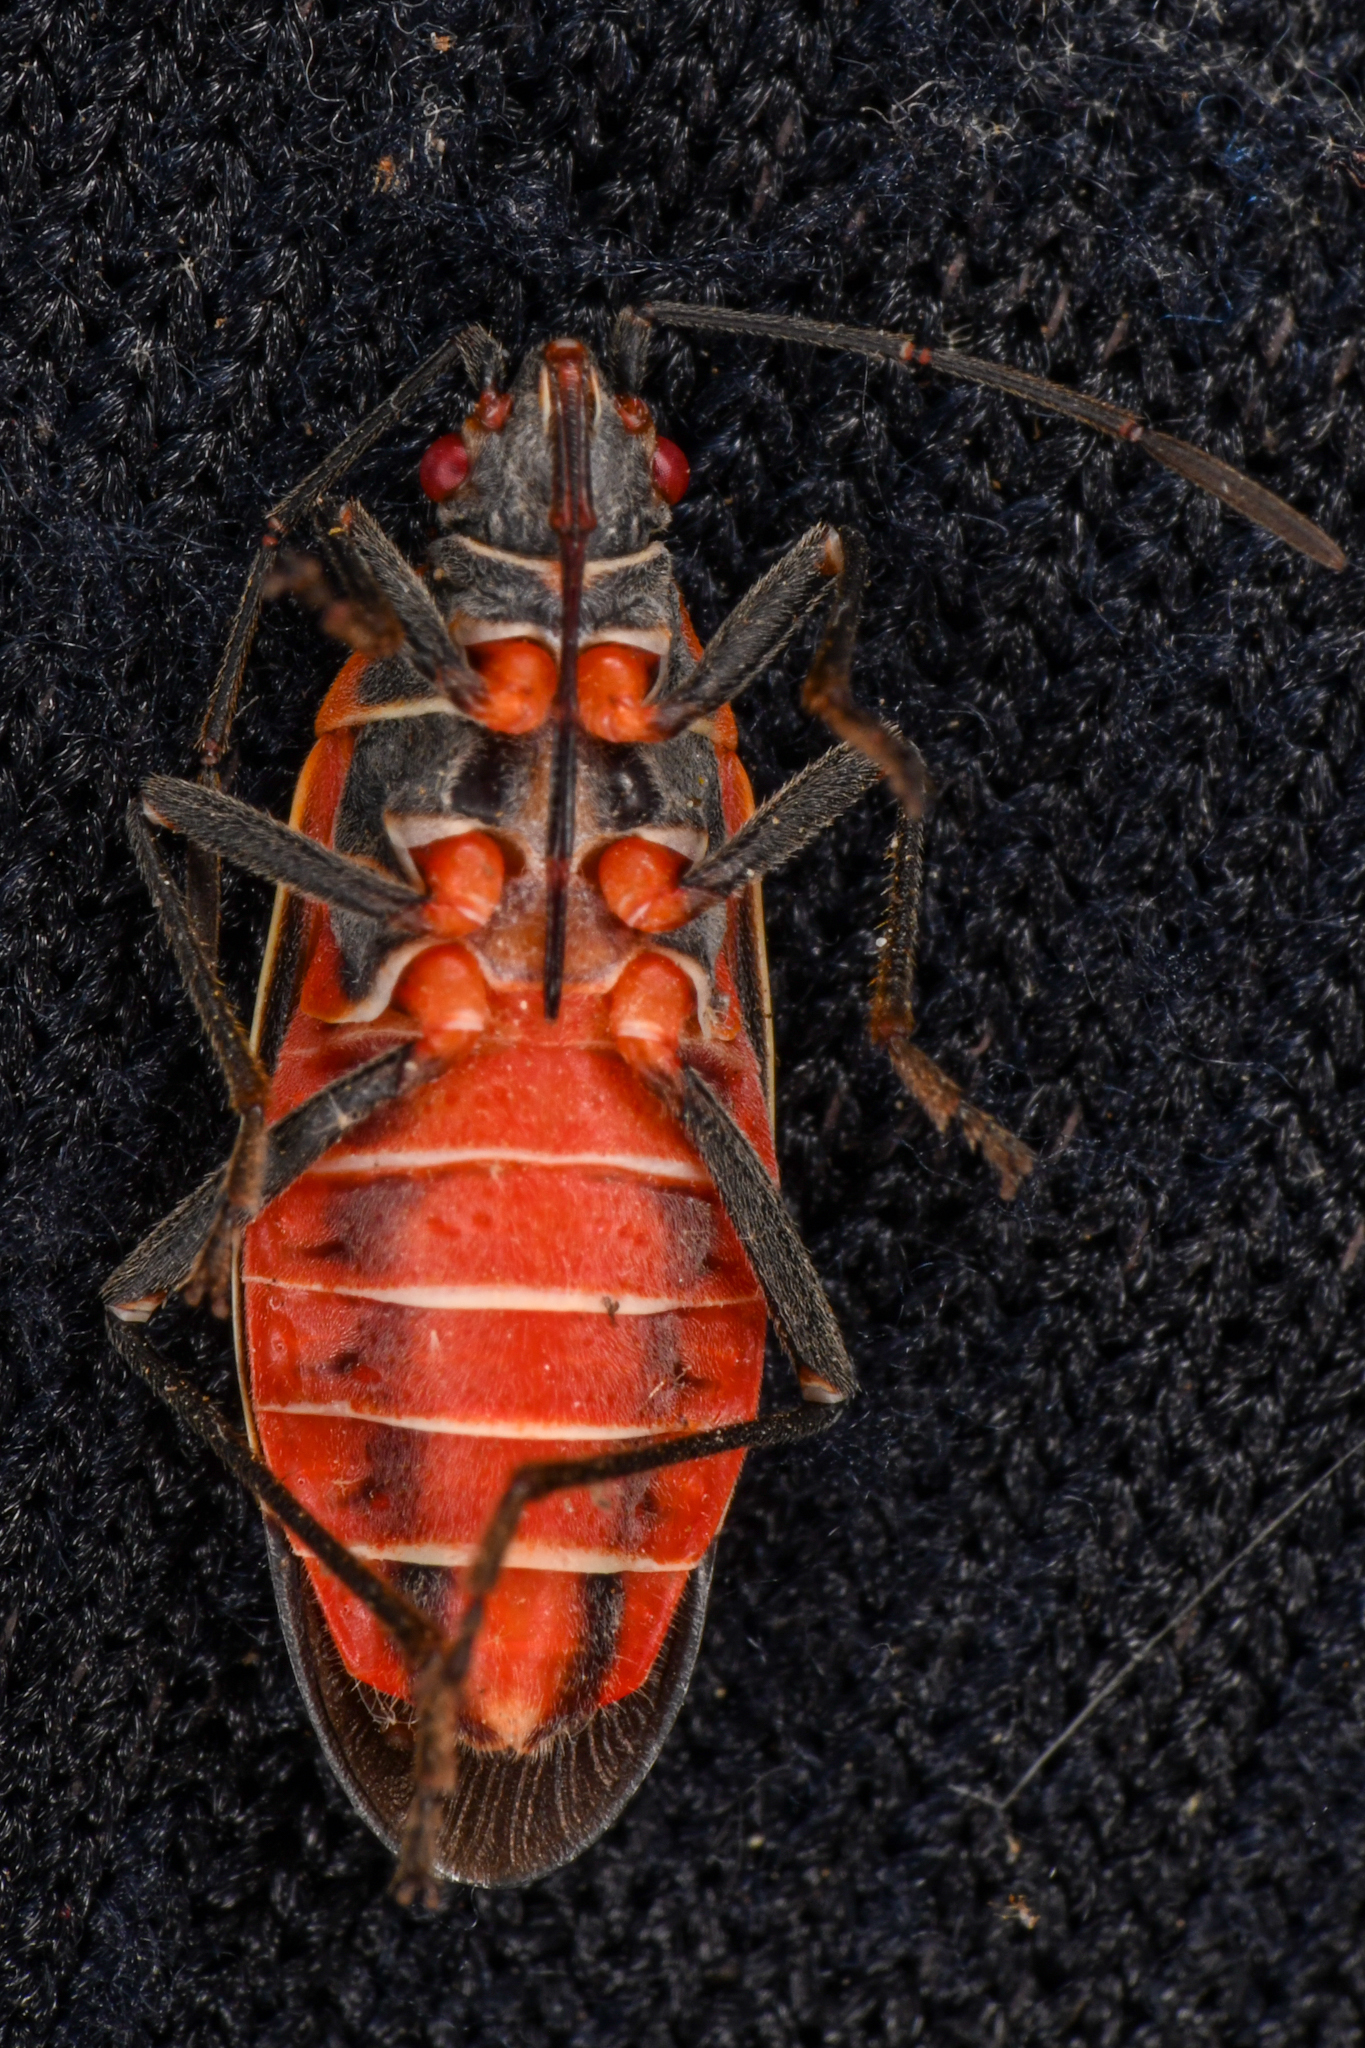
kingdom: Animalia
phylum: Arthropoda
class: Insecta
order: Hemiptera
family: Rhopalidae
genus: Boisea
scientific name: Boisea rubrolineata
